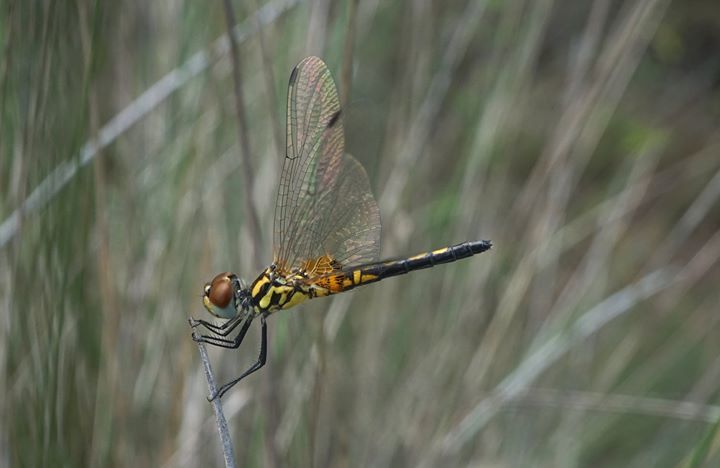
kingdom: Animalia
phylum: Arthropoda
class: Insecta
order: Odonata
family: Libellulidae
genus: Celithemis
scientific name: Celithemis ornata
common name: Ornate pennant
